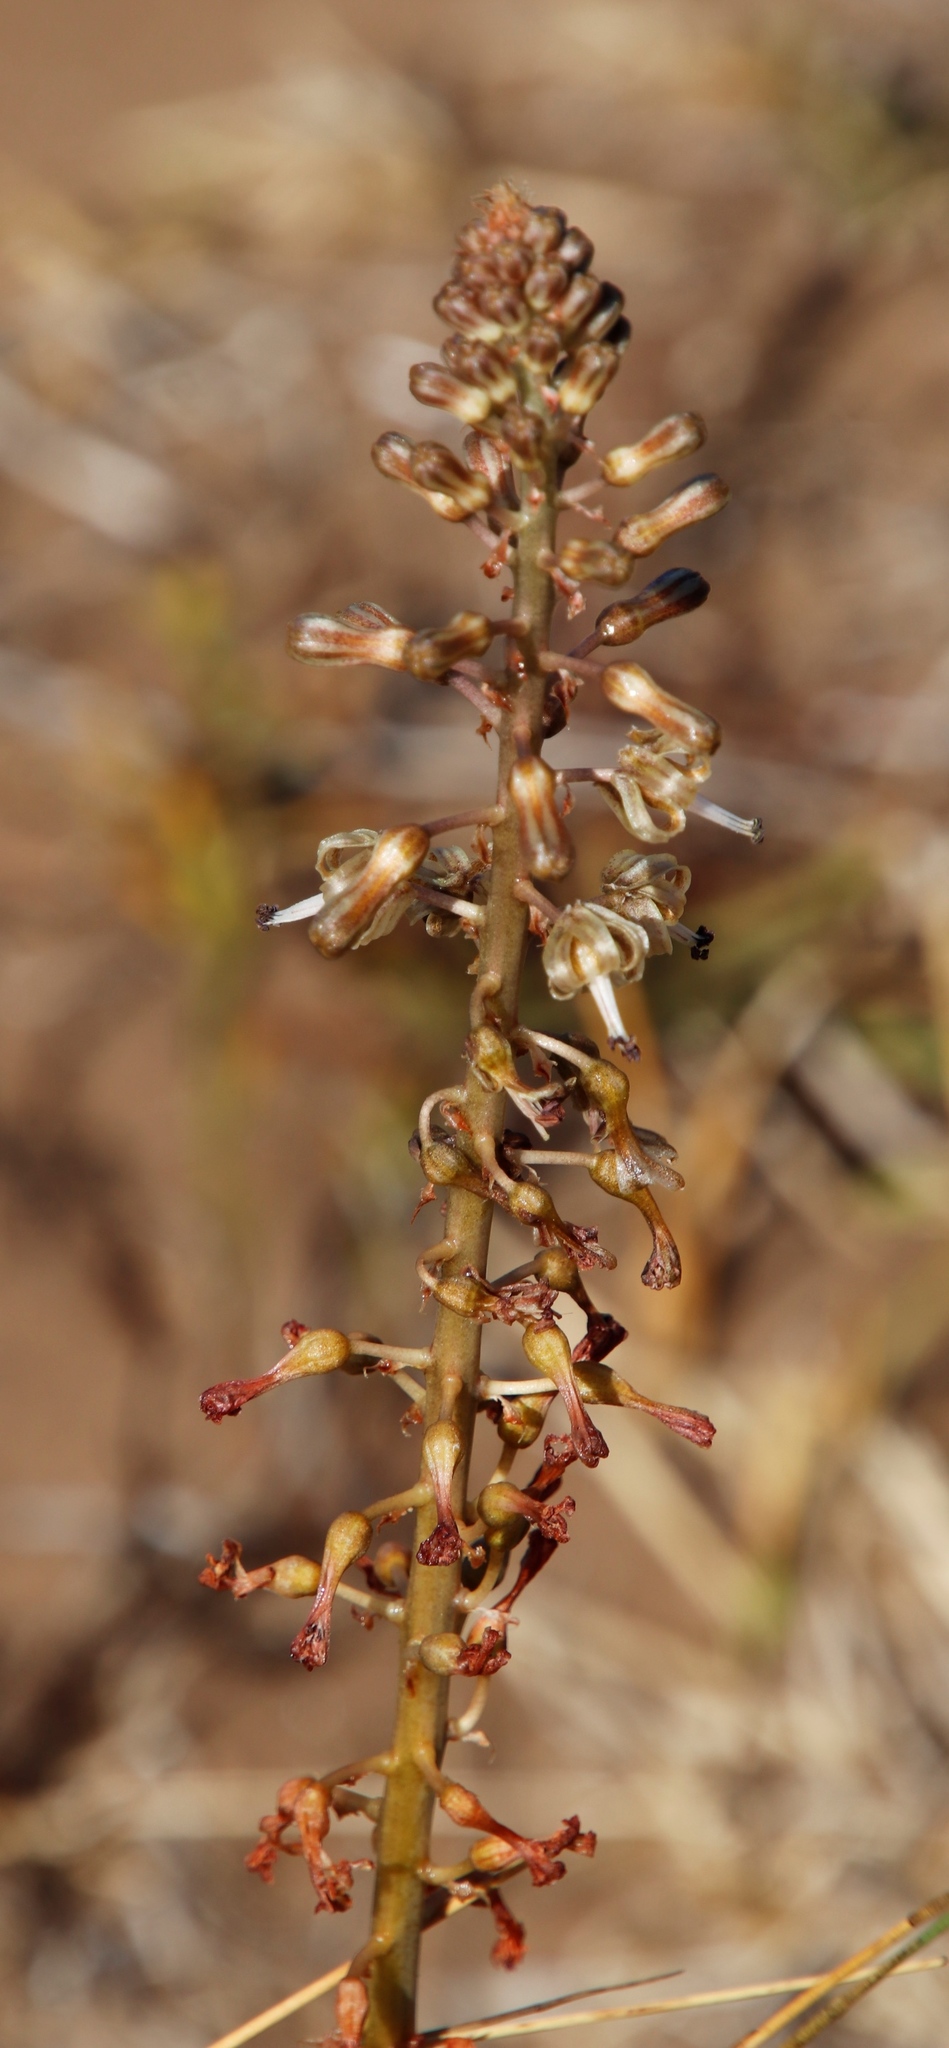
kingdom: Plantae
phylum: Tracheophyta
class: Liliopsida
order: Asparagales
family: Asparagaceae
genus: Drimia
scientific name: Drimia elata
